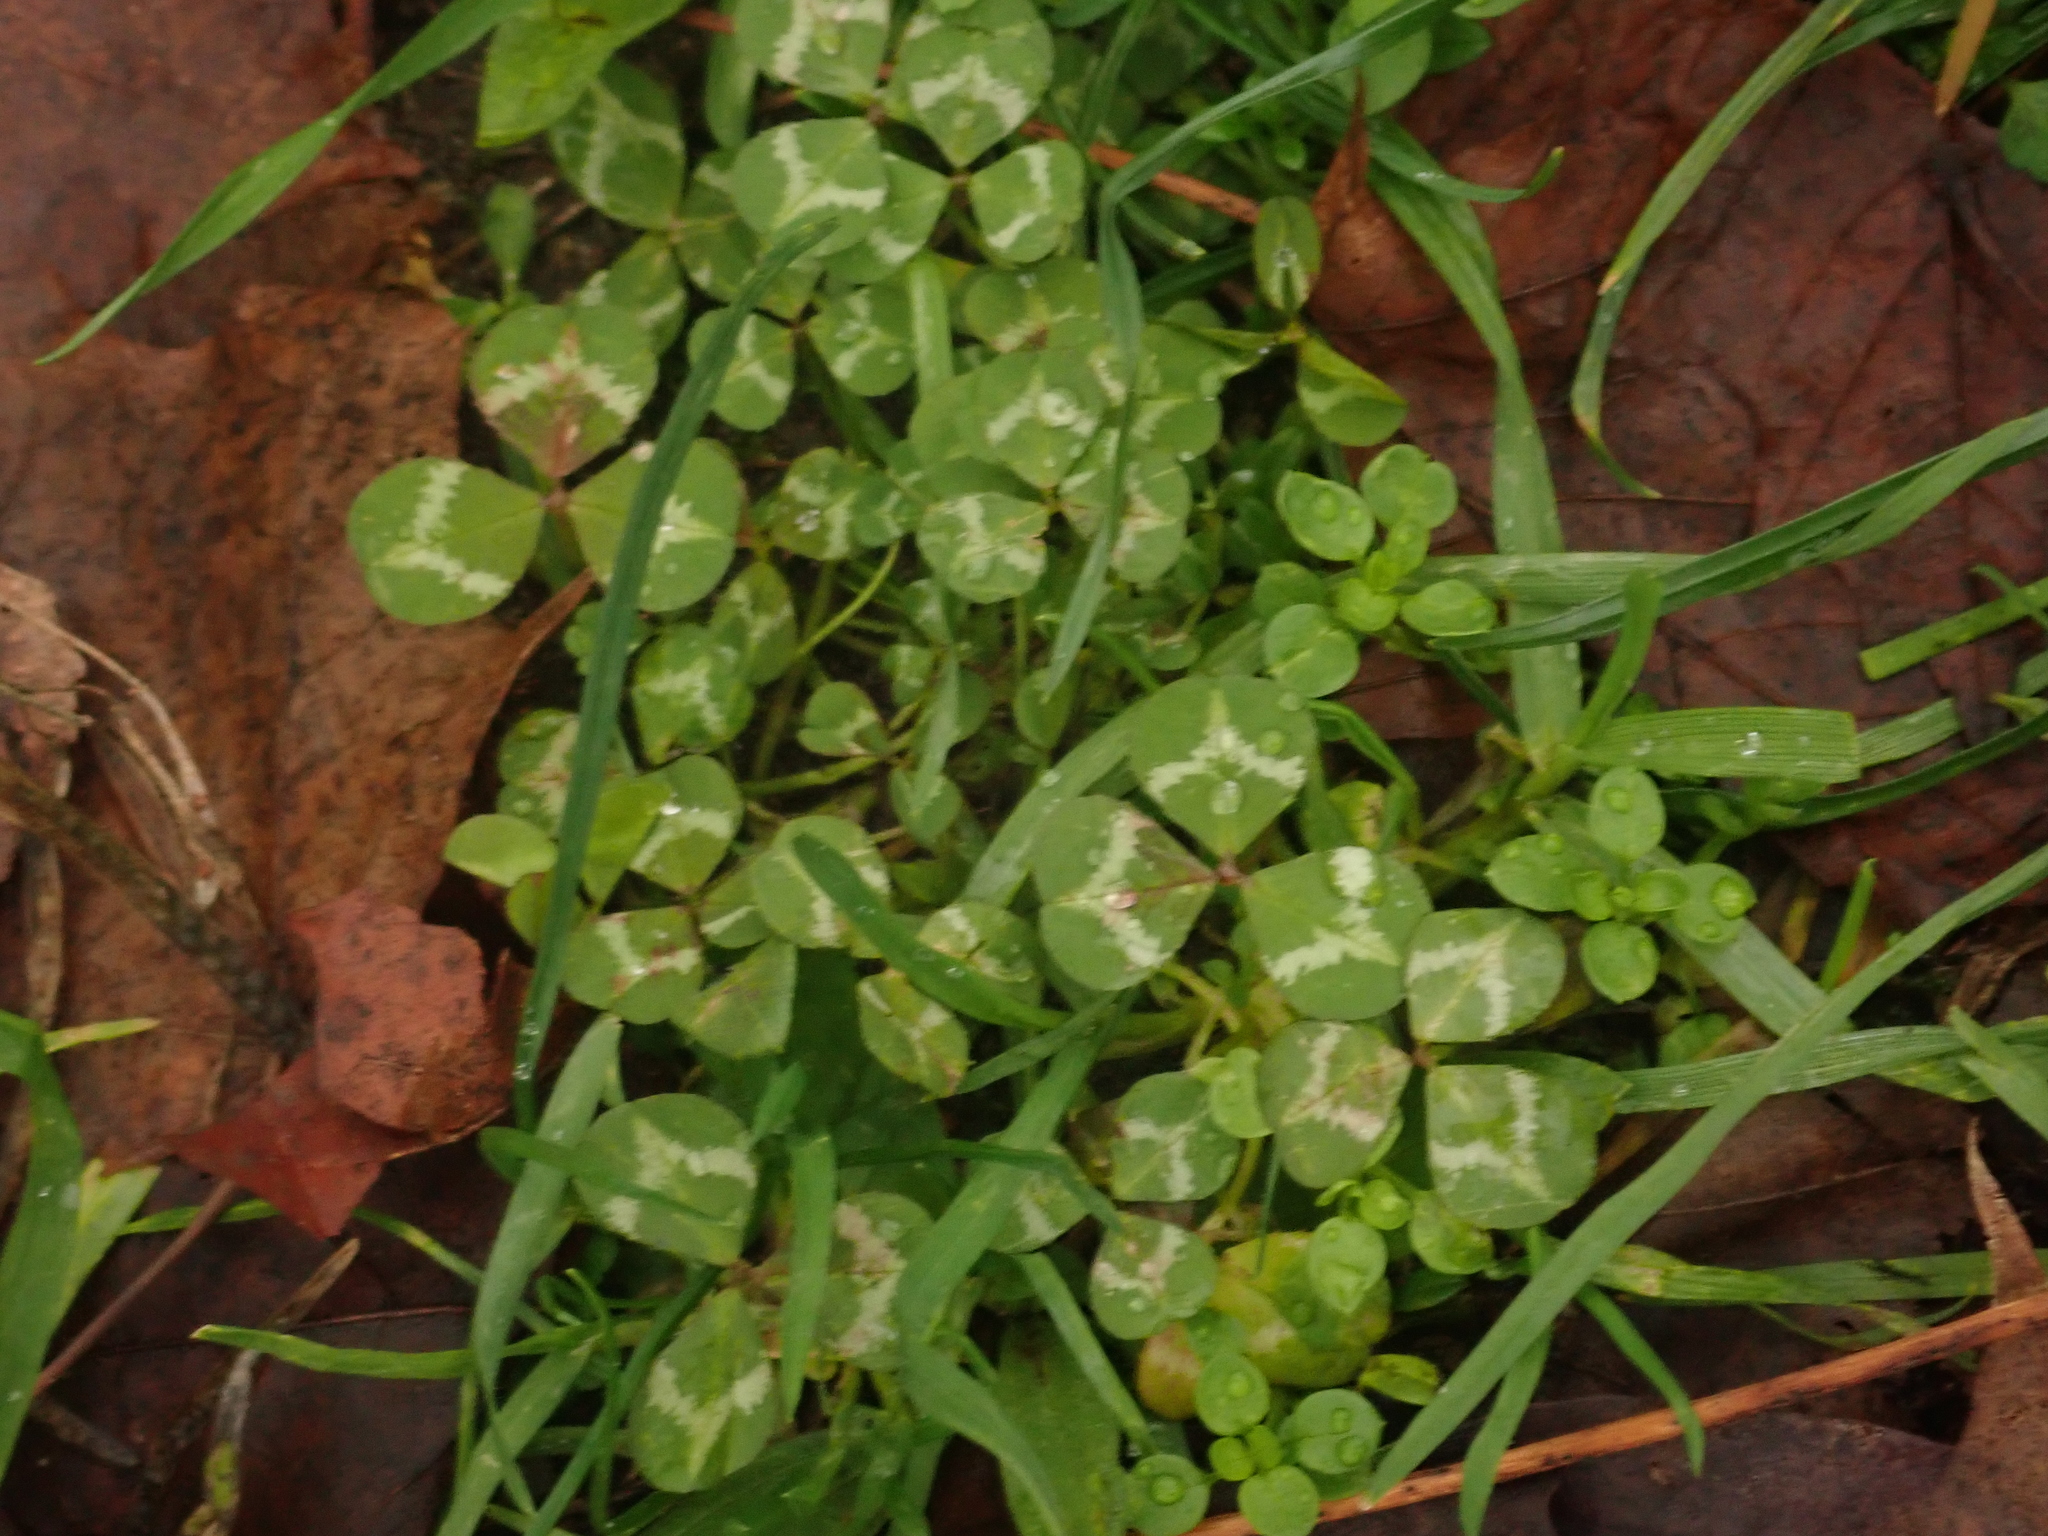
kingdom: Plantae
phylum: Tracheophyta
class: Magnoliopsida
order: Fabales
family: Fabaceae
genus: Trifolium
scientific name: Trifolium repens
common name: White clover
